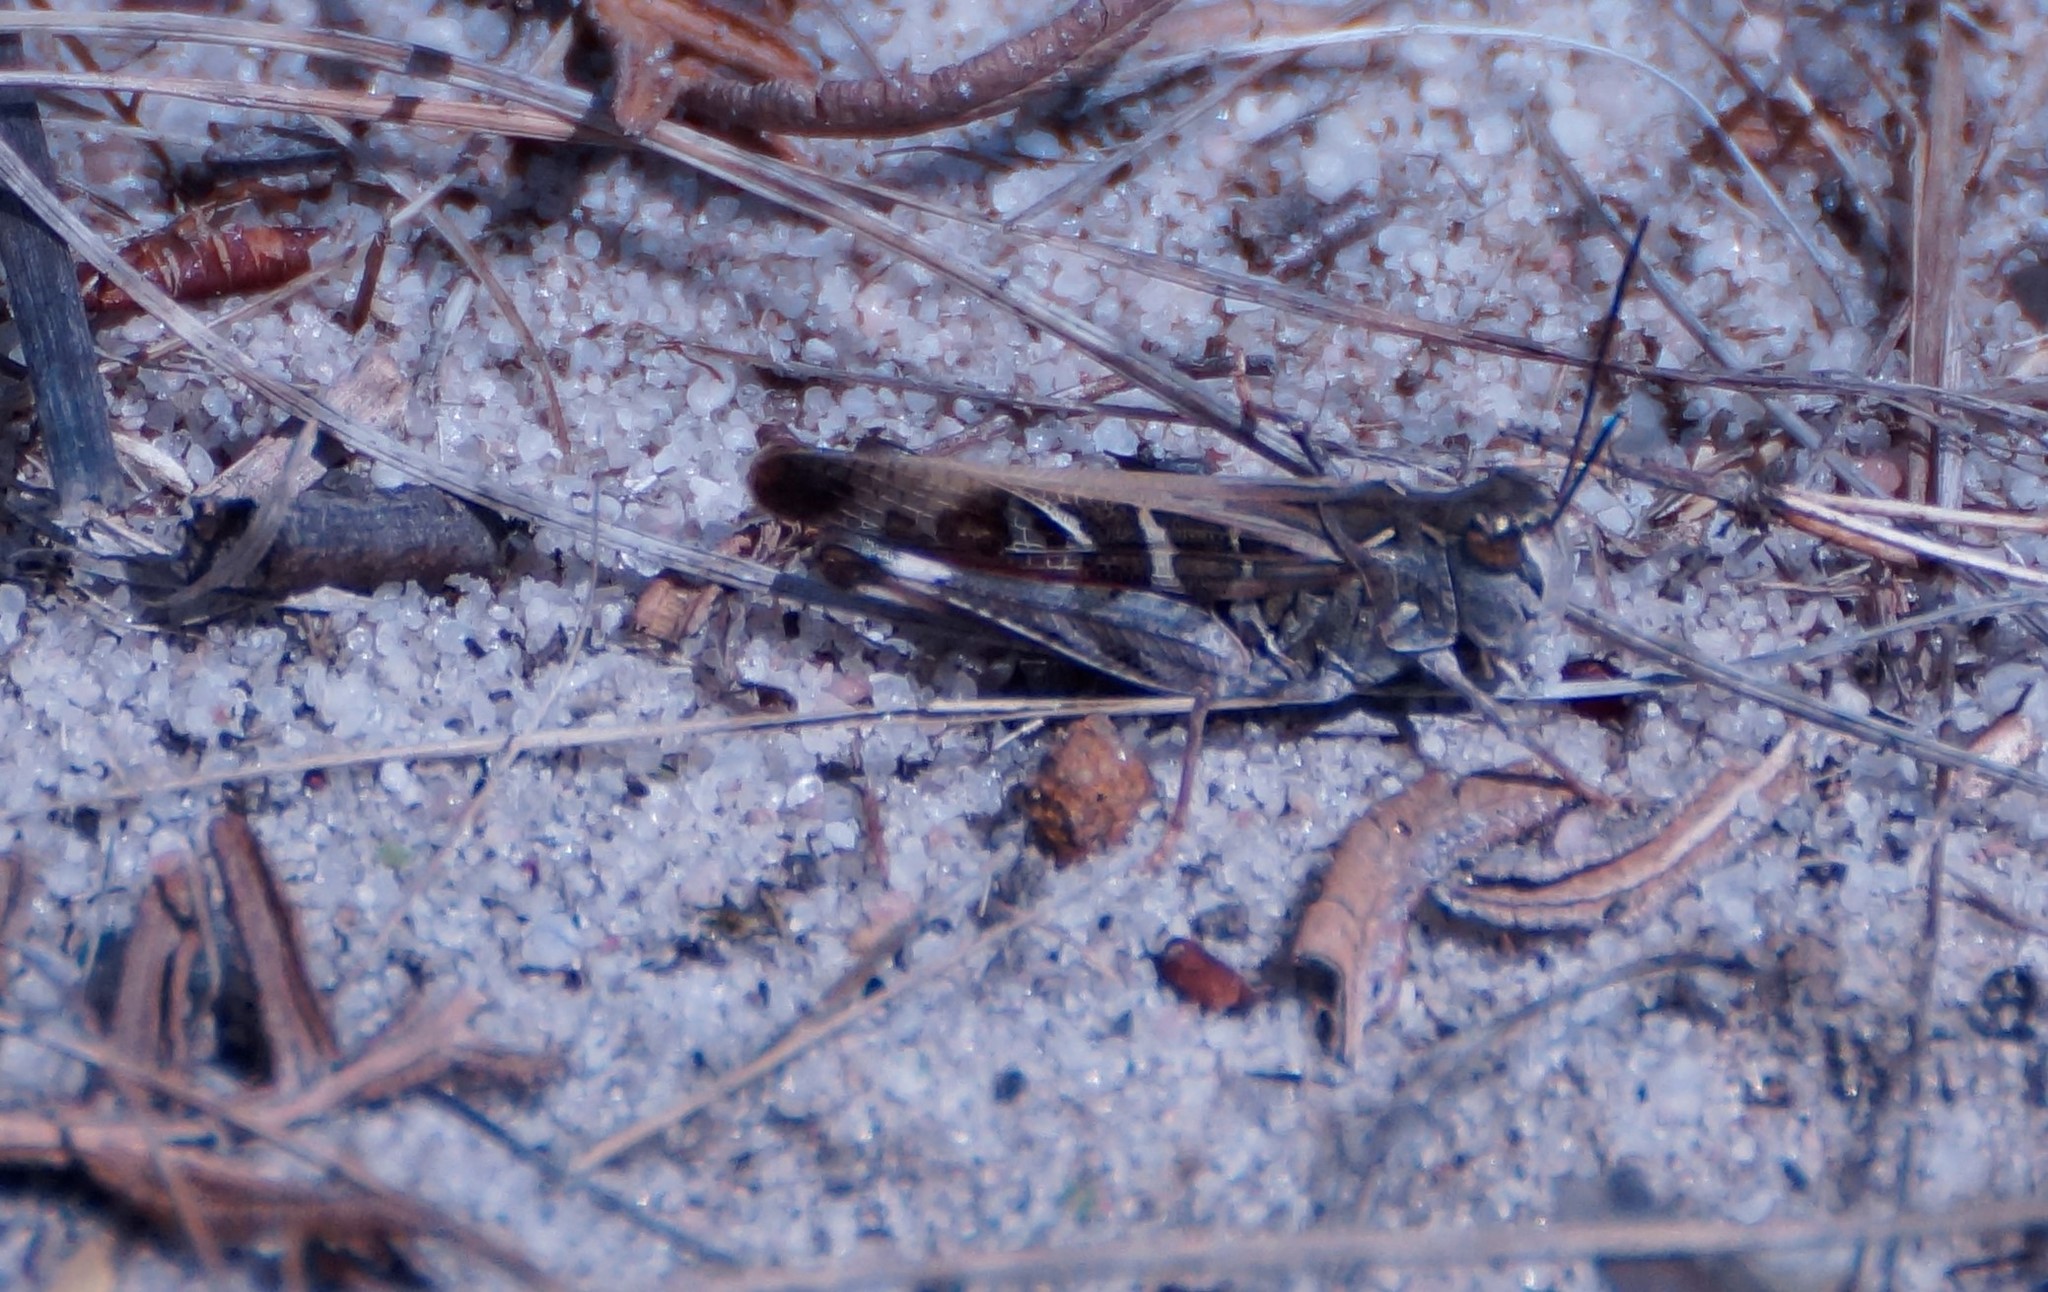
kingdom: Animalia
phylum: Arthropoda
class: Insecta
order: Orthoptera
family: Acrididae
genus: Oedaleus
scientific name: Oedaleus australis
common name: Eastern oedaleus
